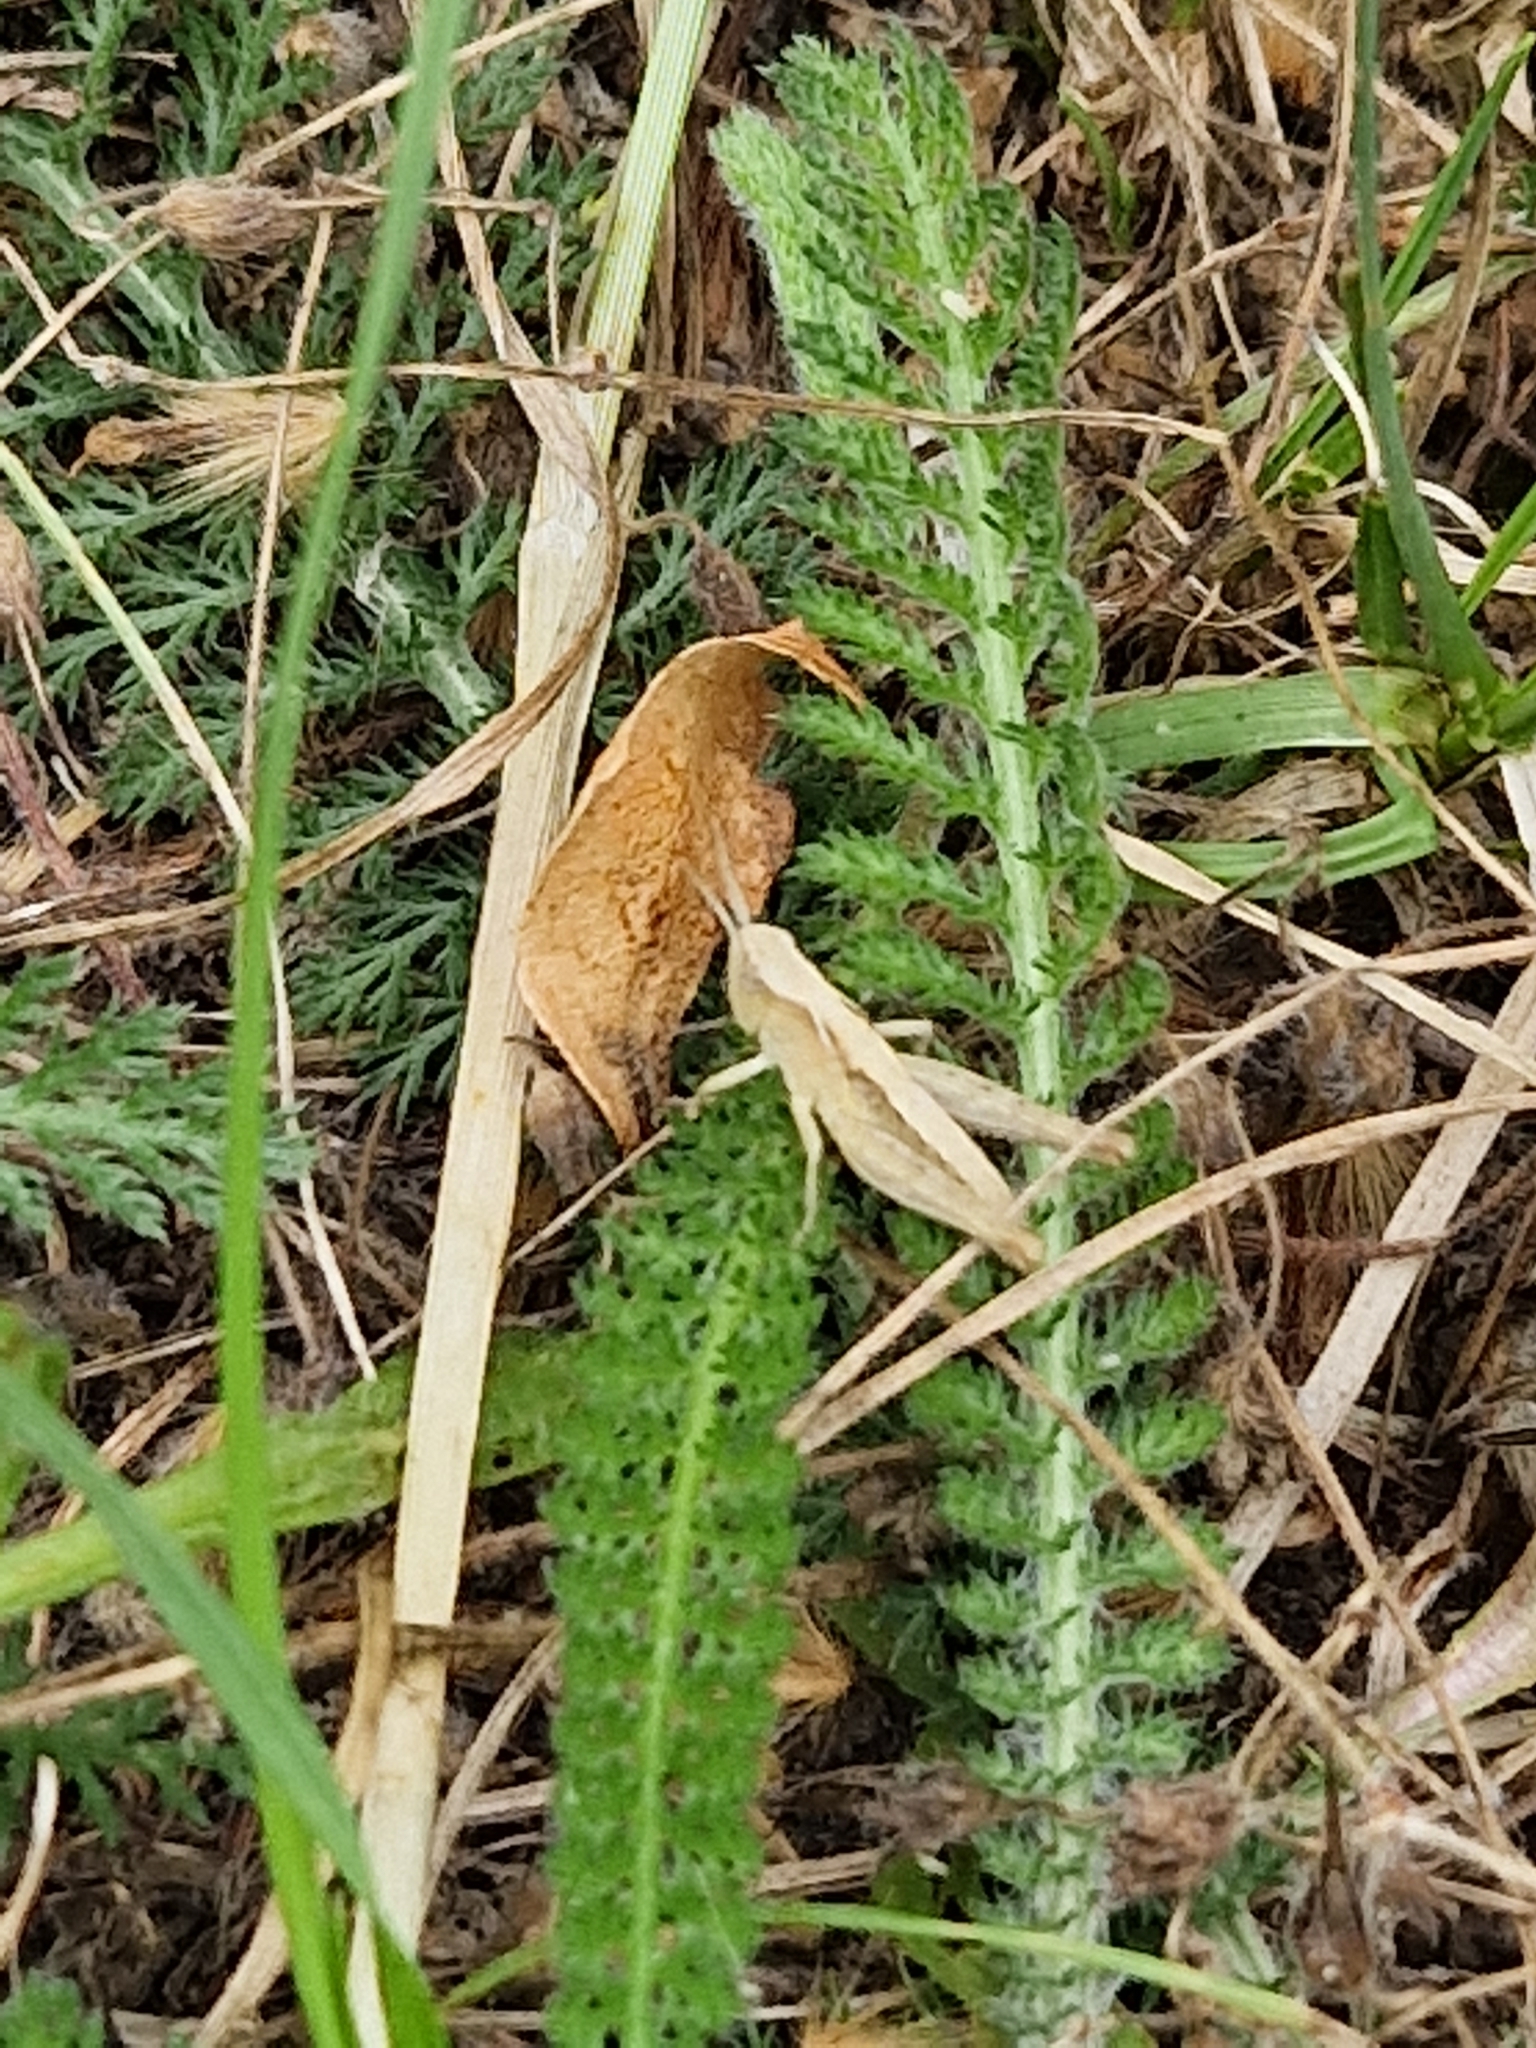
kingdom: Animalia
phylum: Arthropoda
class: Insecta
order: Orthoptera
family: Acrididae
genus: Chorthippus
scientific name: Chorthippus brunneus
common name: Field grasshopper
